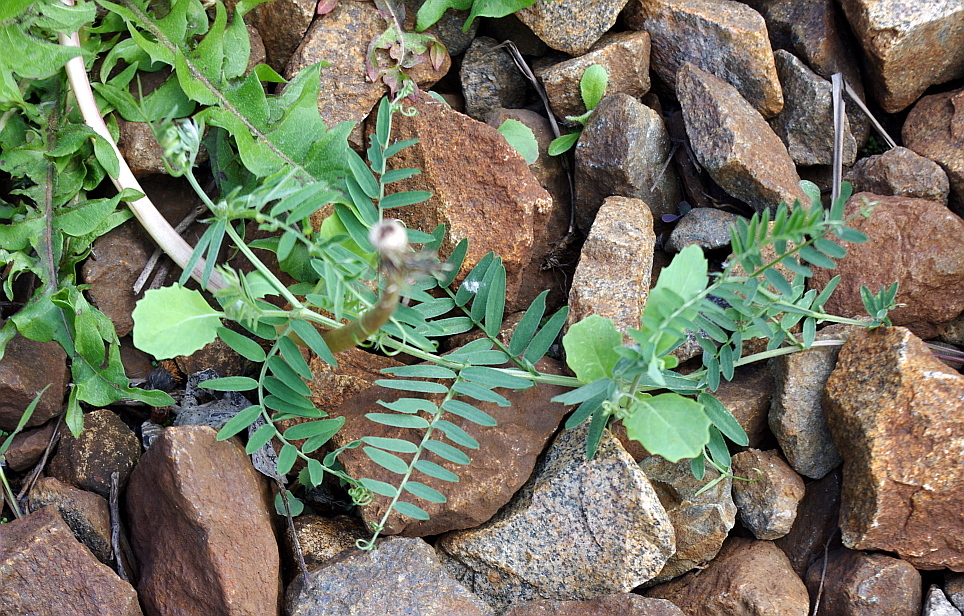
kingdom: Plantae
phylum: Tracheophyta
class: Magnoliopsida
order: Fabales
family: Fabaceae
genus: Vicia
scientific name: Vicia cracca
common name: Bird vetch
